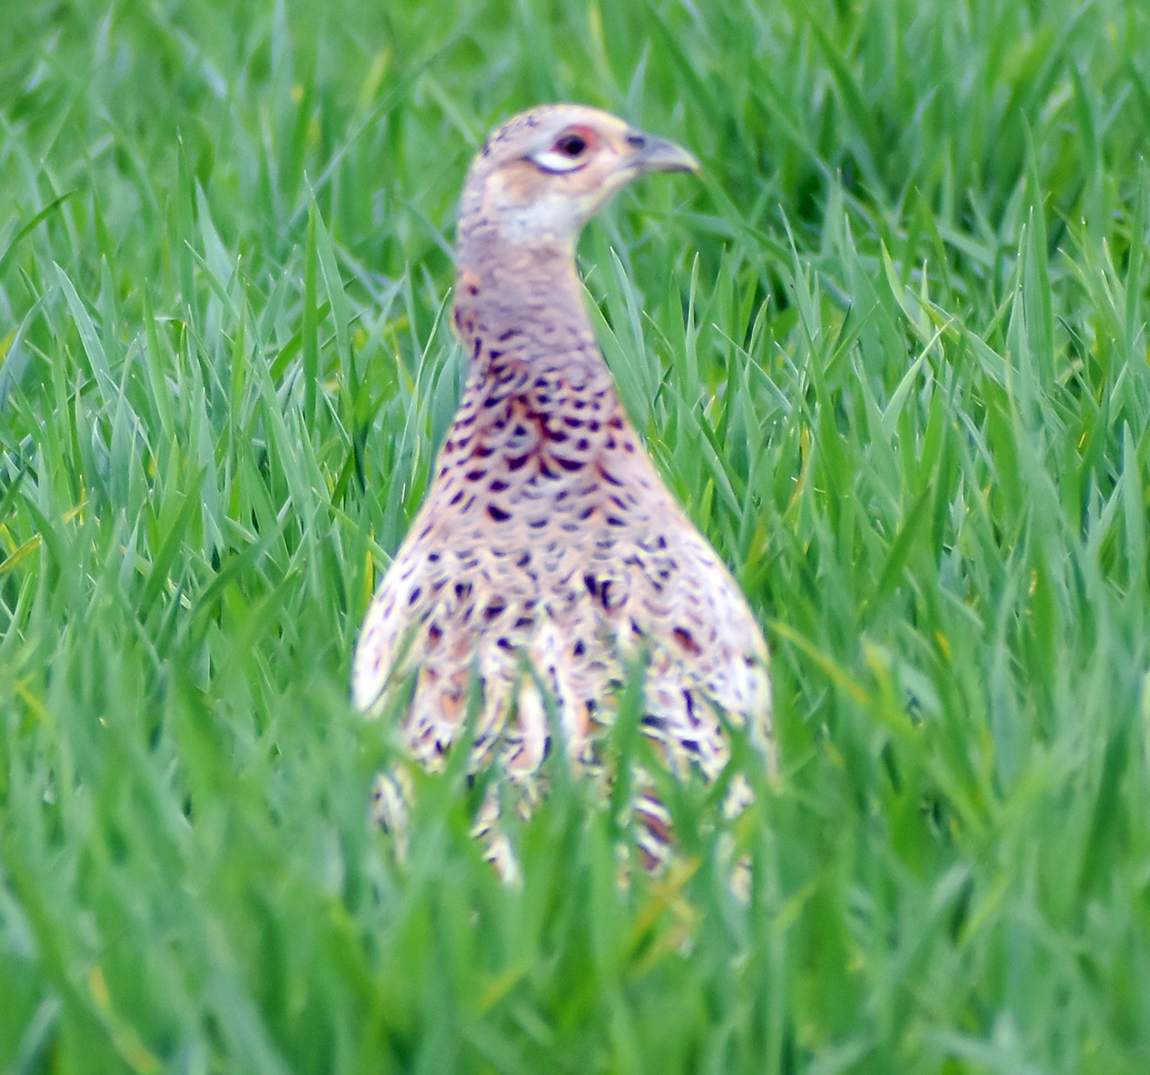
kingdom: Animalia
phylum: Chordata
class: Aves
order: Galliformes
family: Phasianidae
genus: Phasianus
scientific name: Phasianus colchicus
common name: Common pheasant
